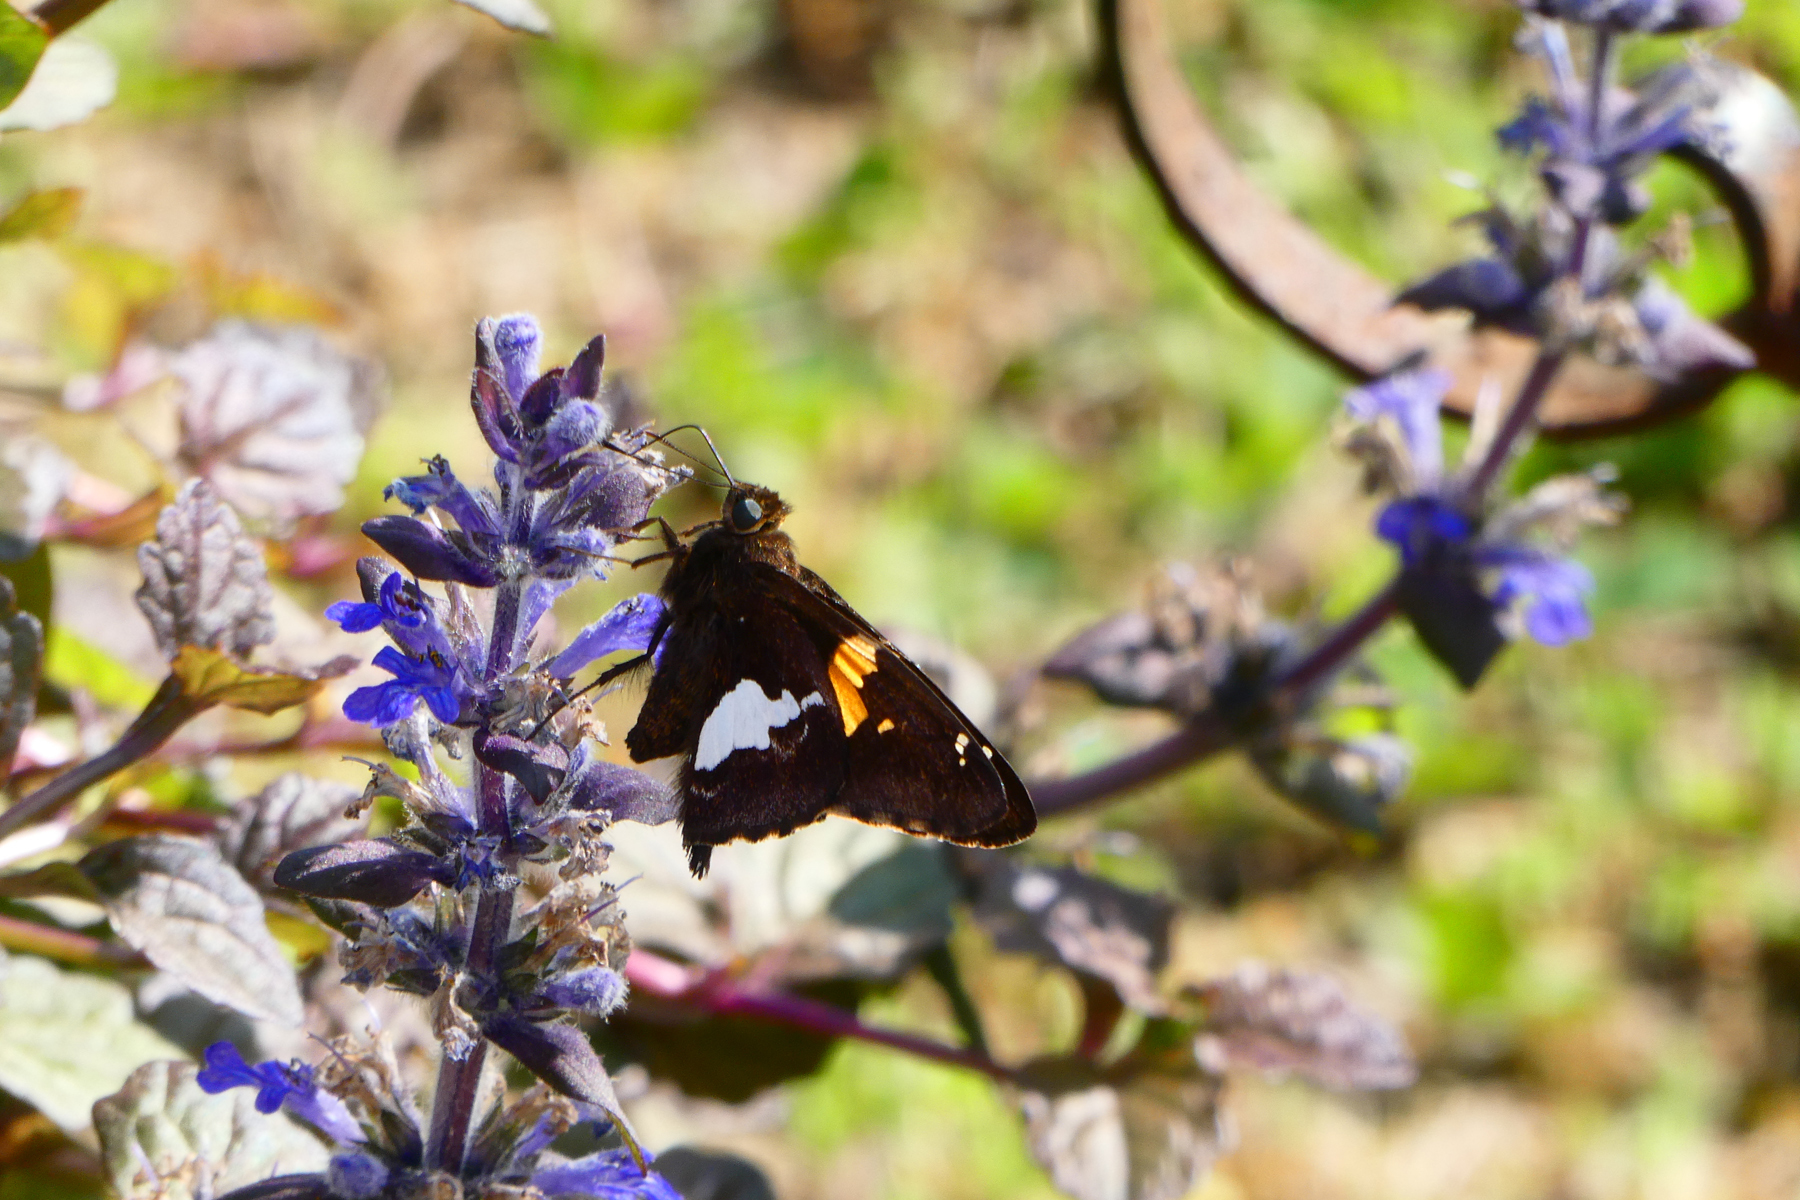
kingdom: Animalia
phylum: Arthropoda
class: Insecta
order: Lepidoptera
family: Hesperiidae
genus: Epargyreus
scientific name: Epargyreus clarus
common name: Silver-spotted skipper
